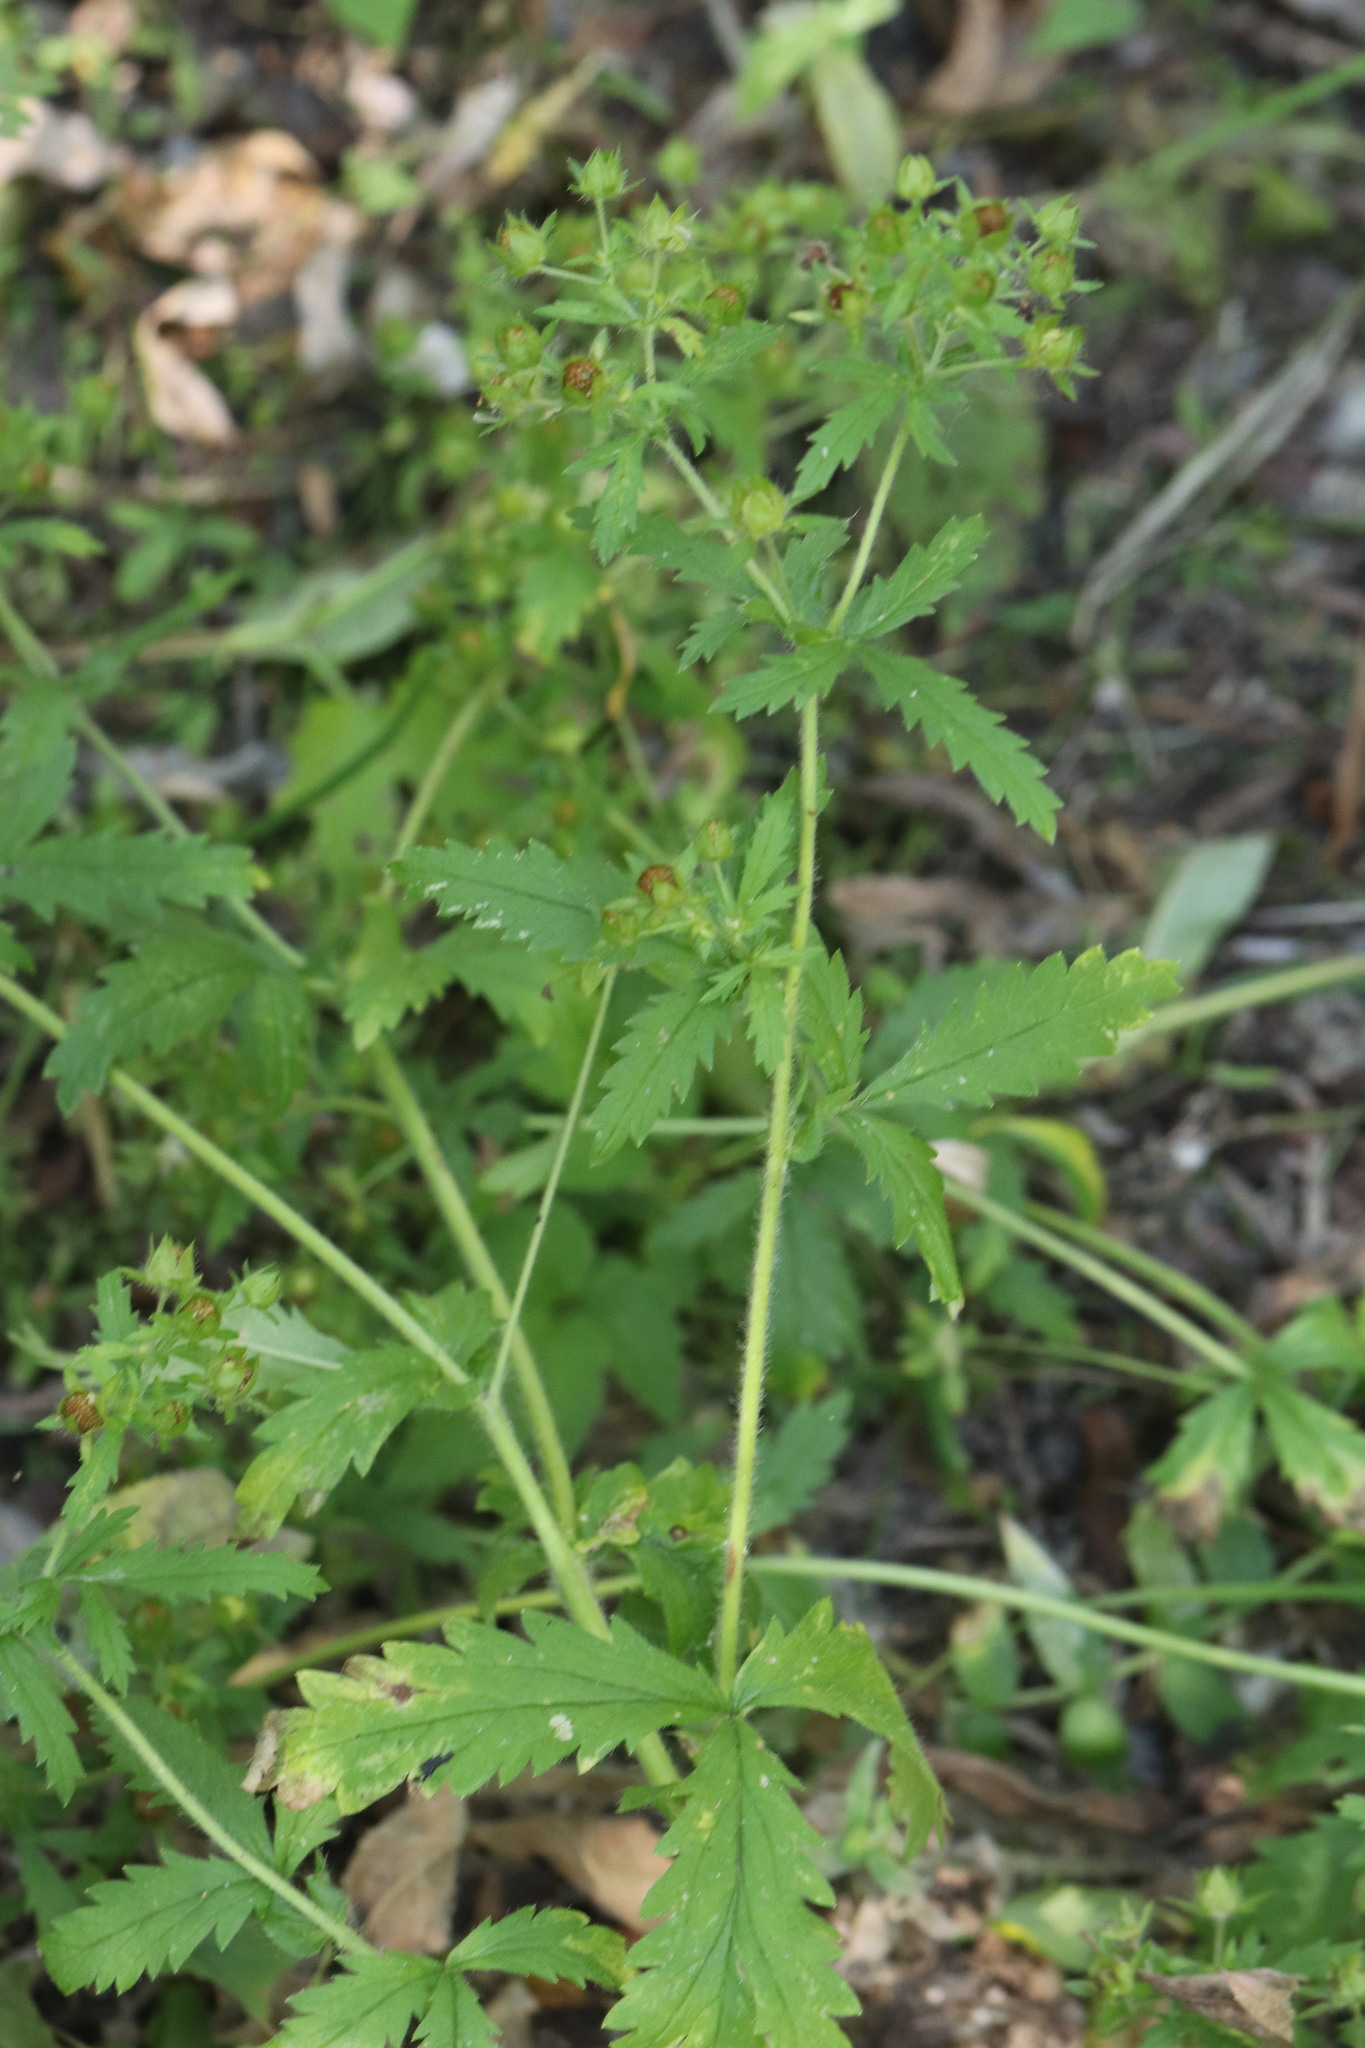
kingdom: Plantae
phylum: Tracheophyta
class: Magnoliopsida
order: Rosales
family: Rosaceae
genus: Potentilla
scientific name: Potentilla norvegica
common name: Ternate-leaved cinquefoil
